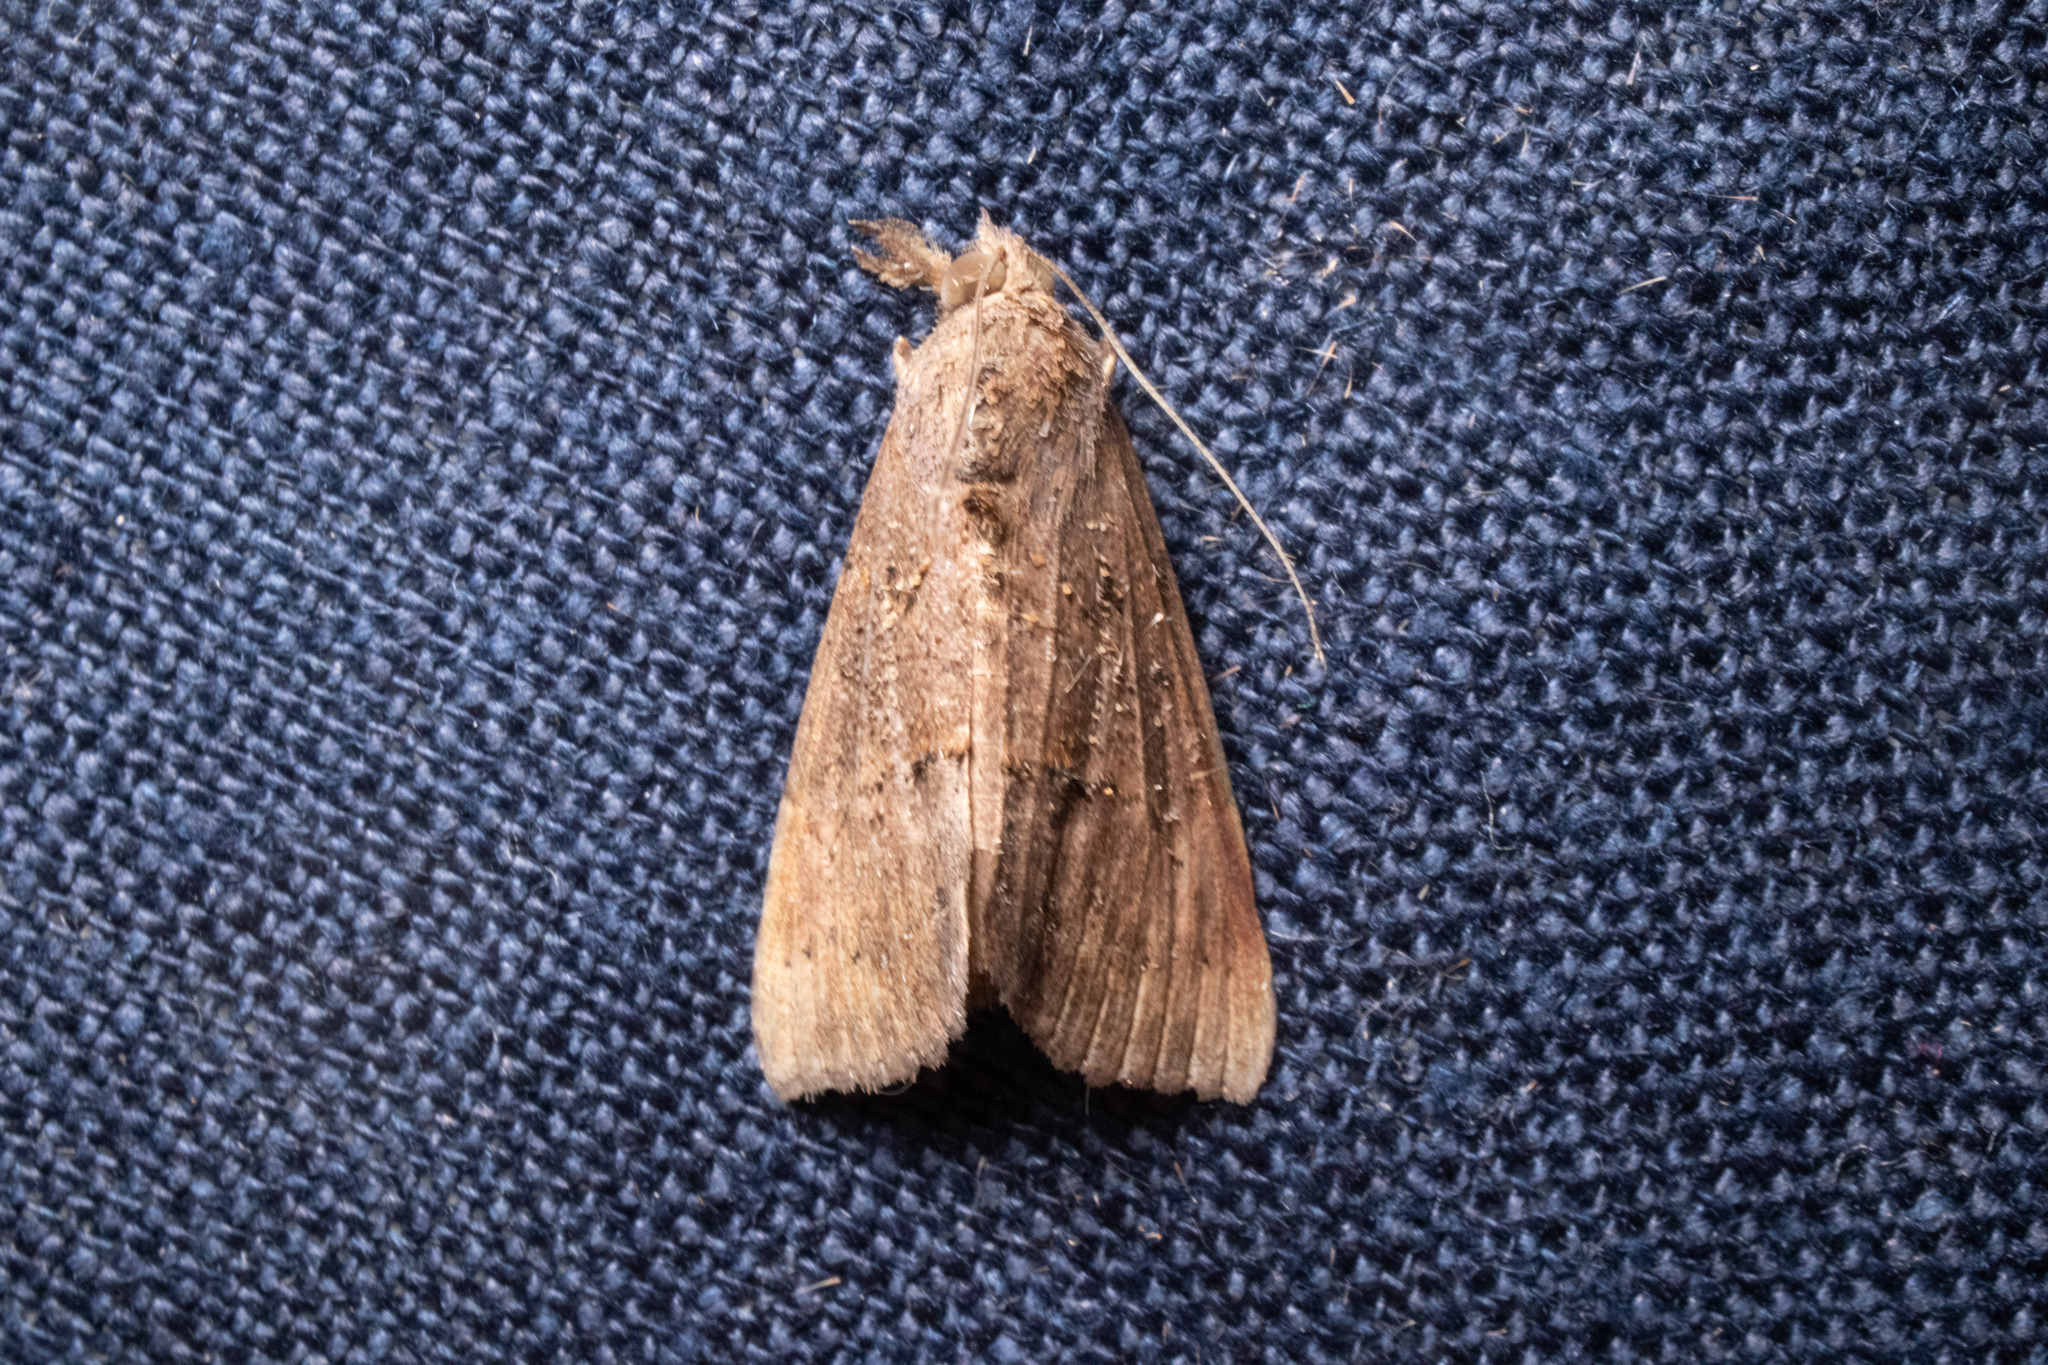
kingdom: Animalia
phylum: Arthropoda
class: Insecta
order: Lepidoptera
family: Erebidae
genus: Hypena
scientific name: Hypena scabra
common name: Green cloverworm
